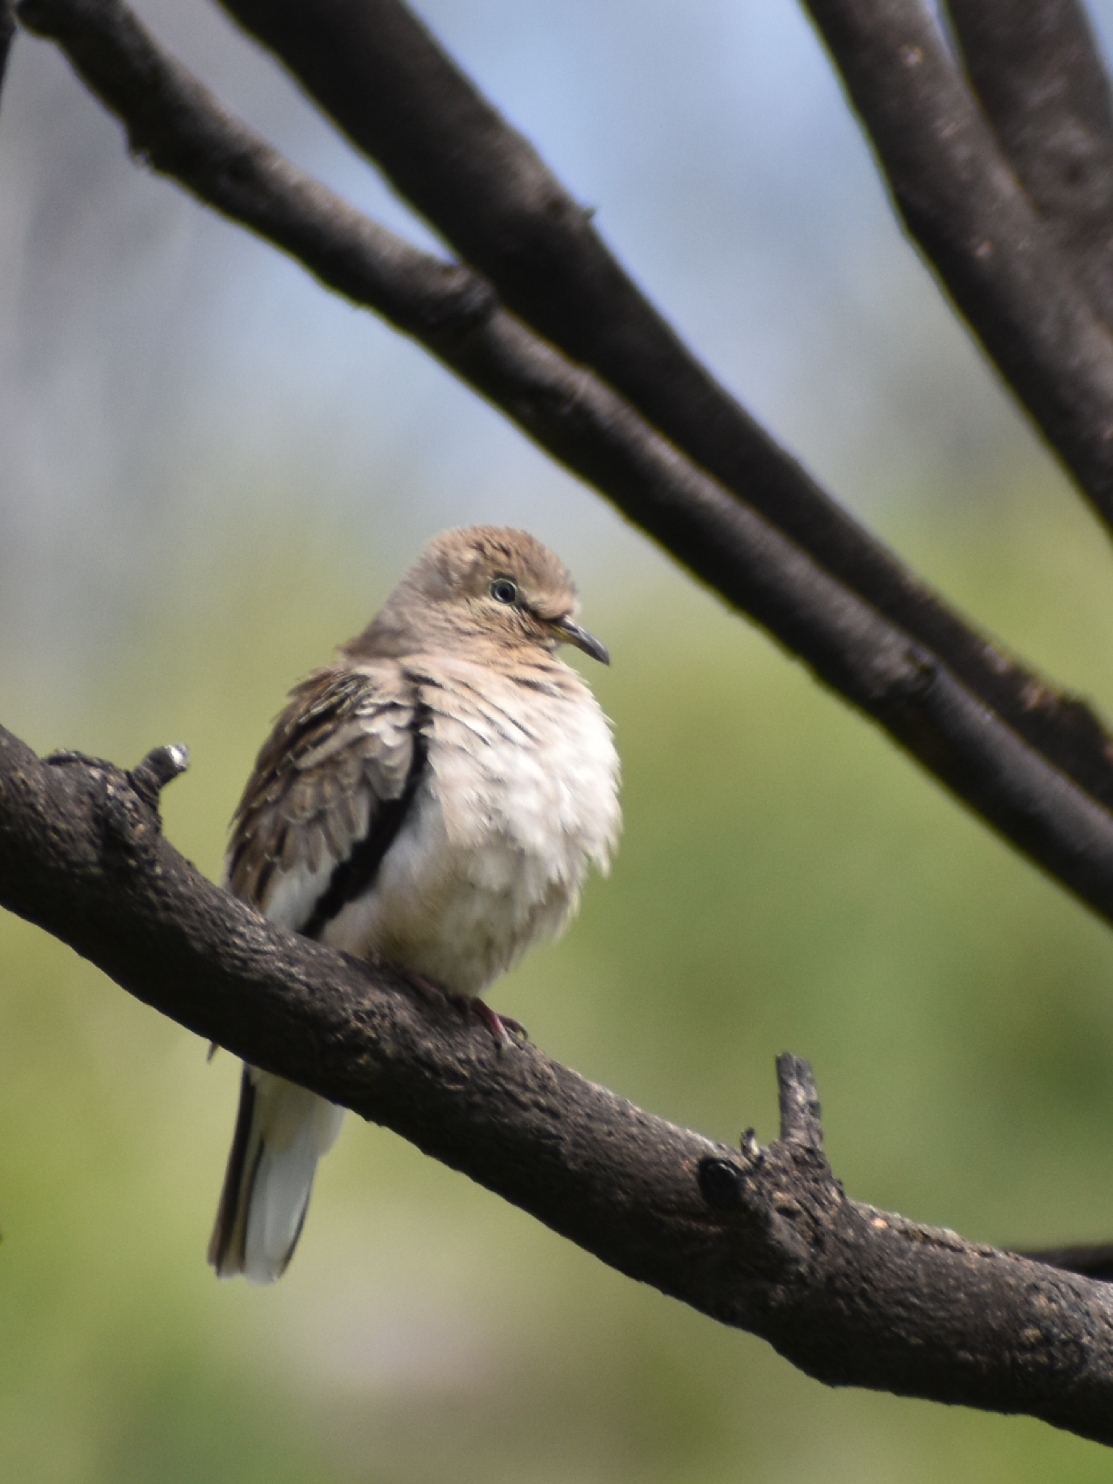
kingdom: Animalia
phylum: Chordata
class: Aves
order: Columbiformes
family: Columbidae
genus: Columbina
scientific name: Columbina picui
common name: Picui ground dove
